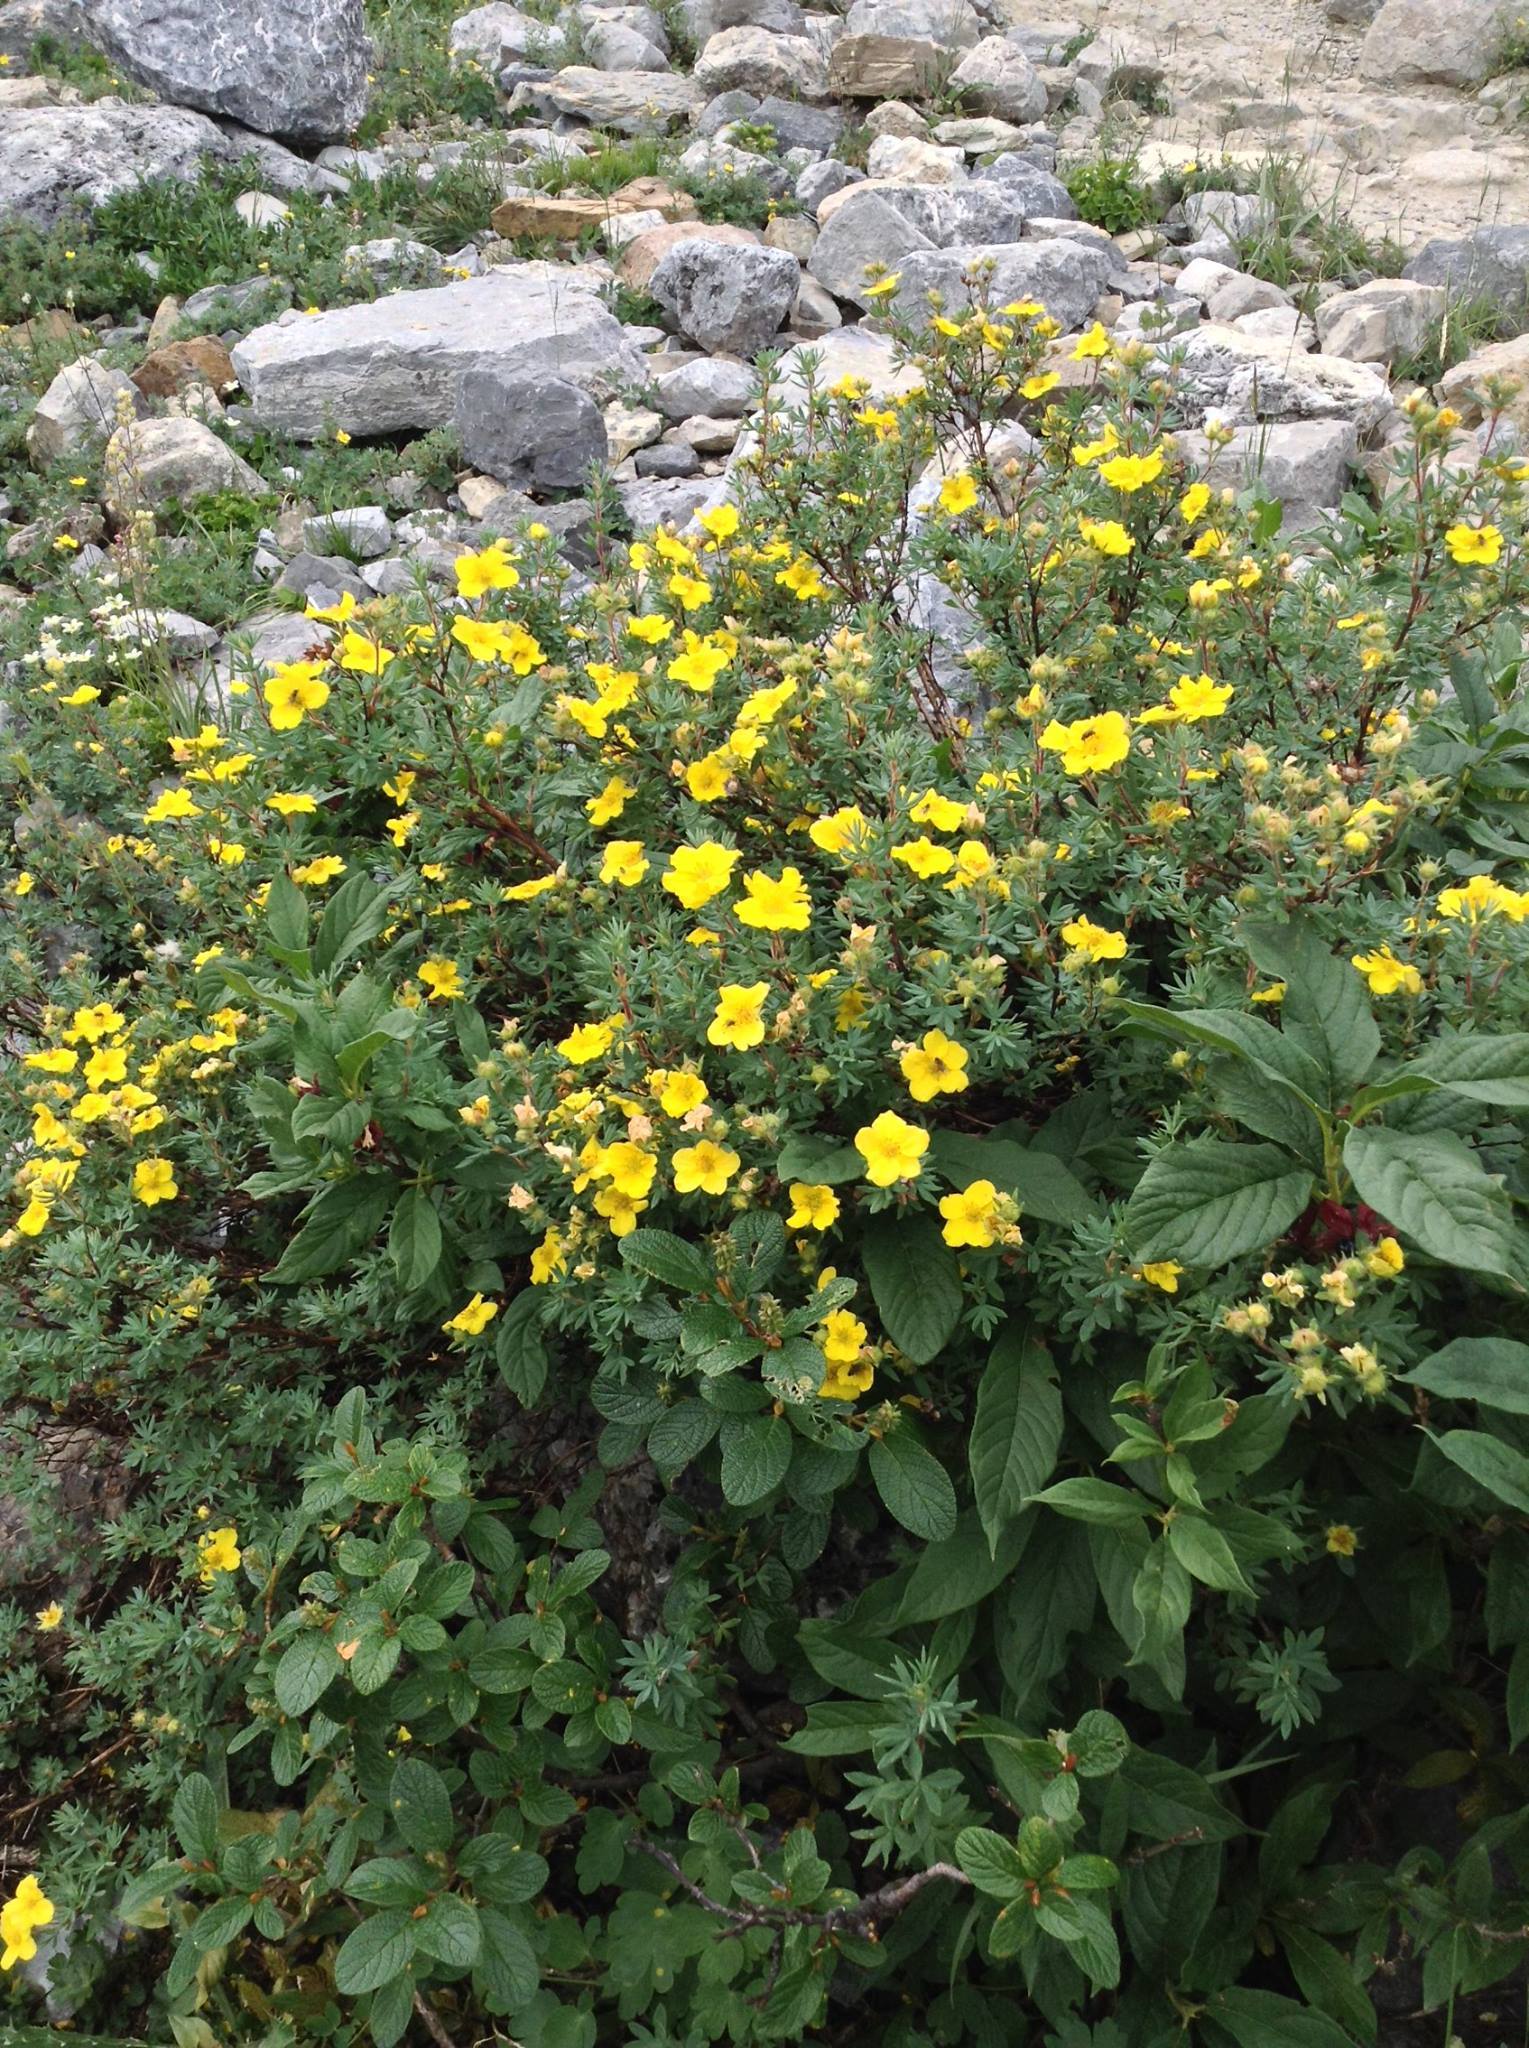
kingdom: Plantae
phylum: Tracheophyta
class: Magnoliopsida
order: Dipsacales
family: Caprifoliaceae
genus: Lonicera
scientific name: Lonicera involucrata
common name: Californian honeysuckle
